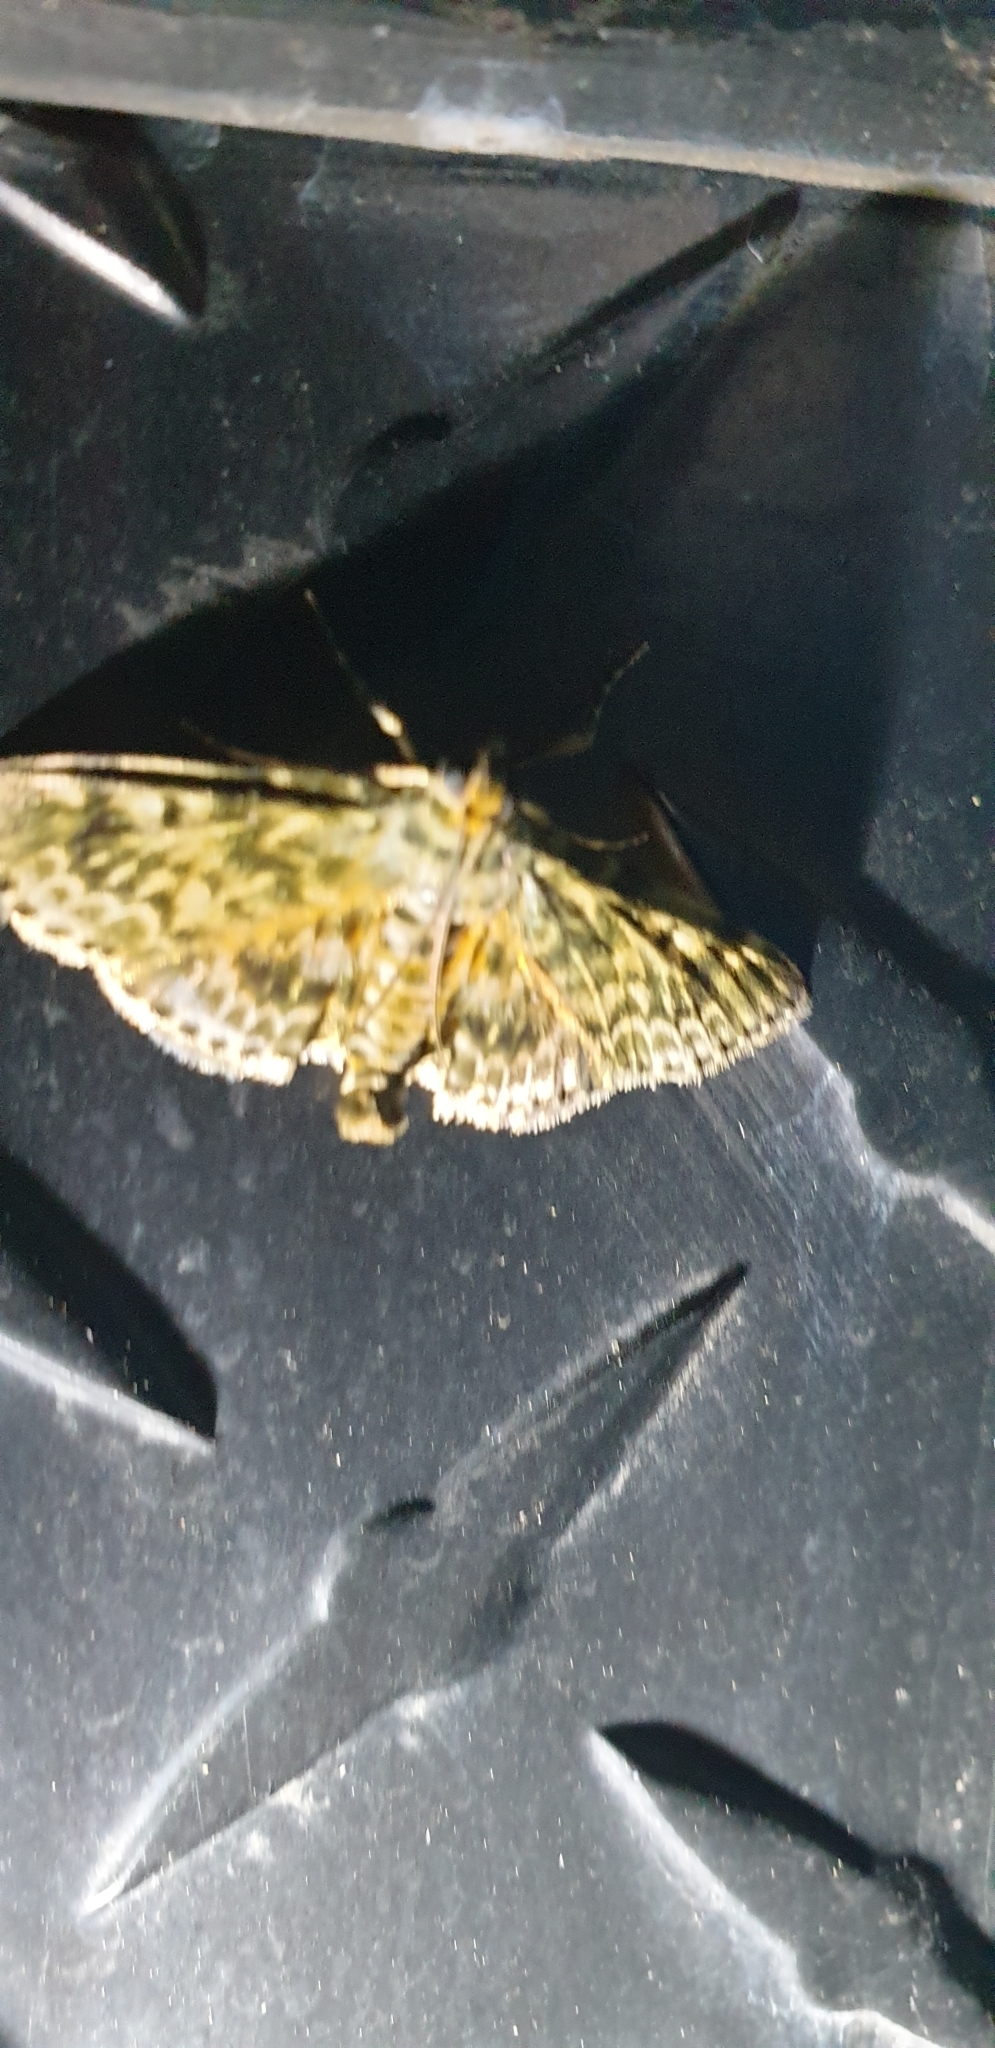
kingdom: Animalia
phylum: Arthropoda
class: Insecta
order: Lepidoptera
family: Pyralidae
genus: Cardamyla
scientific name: Cardamyla didymalis
